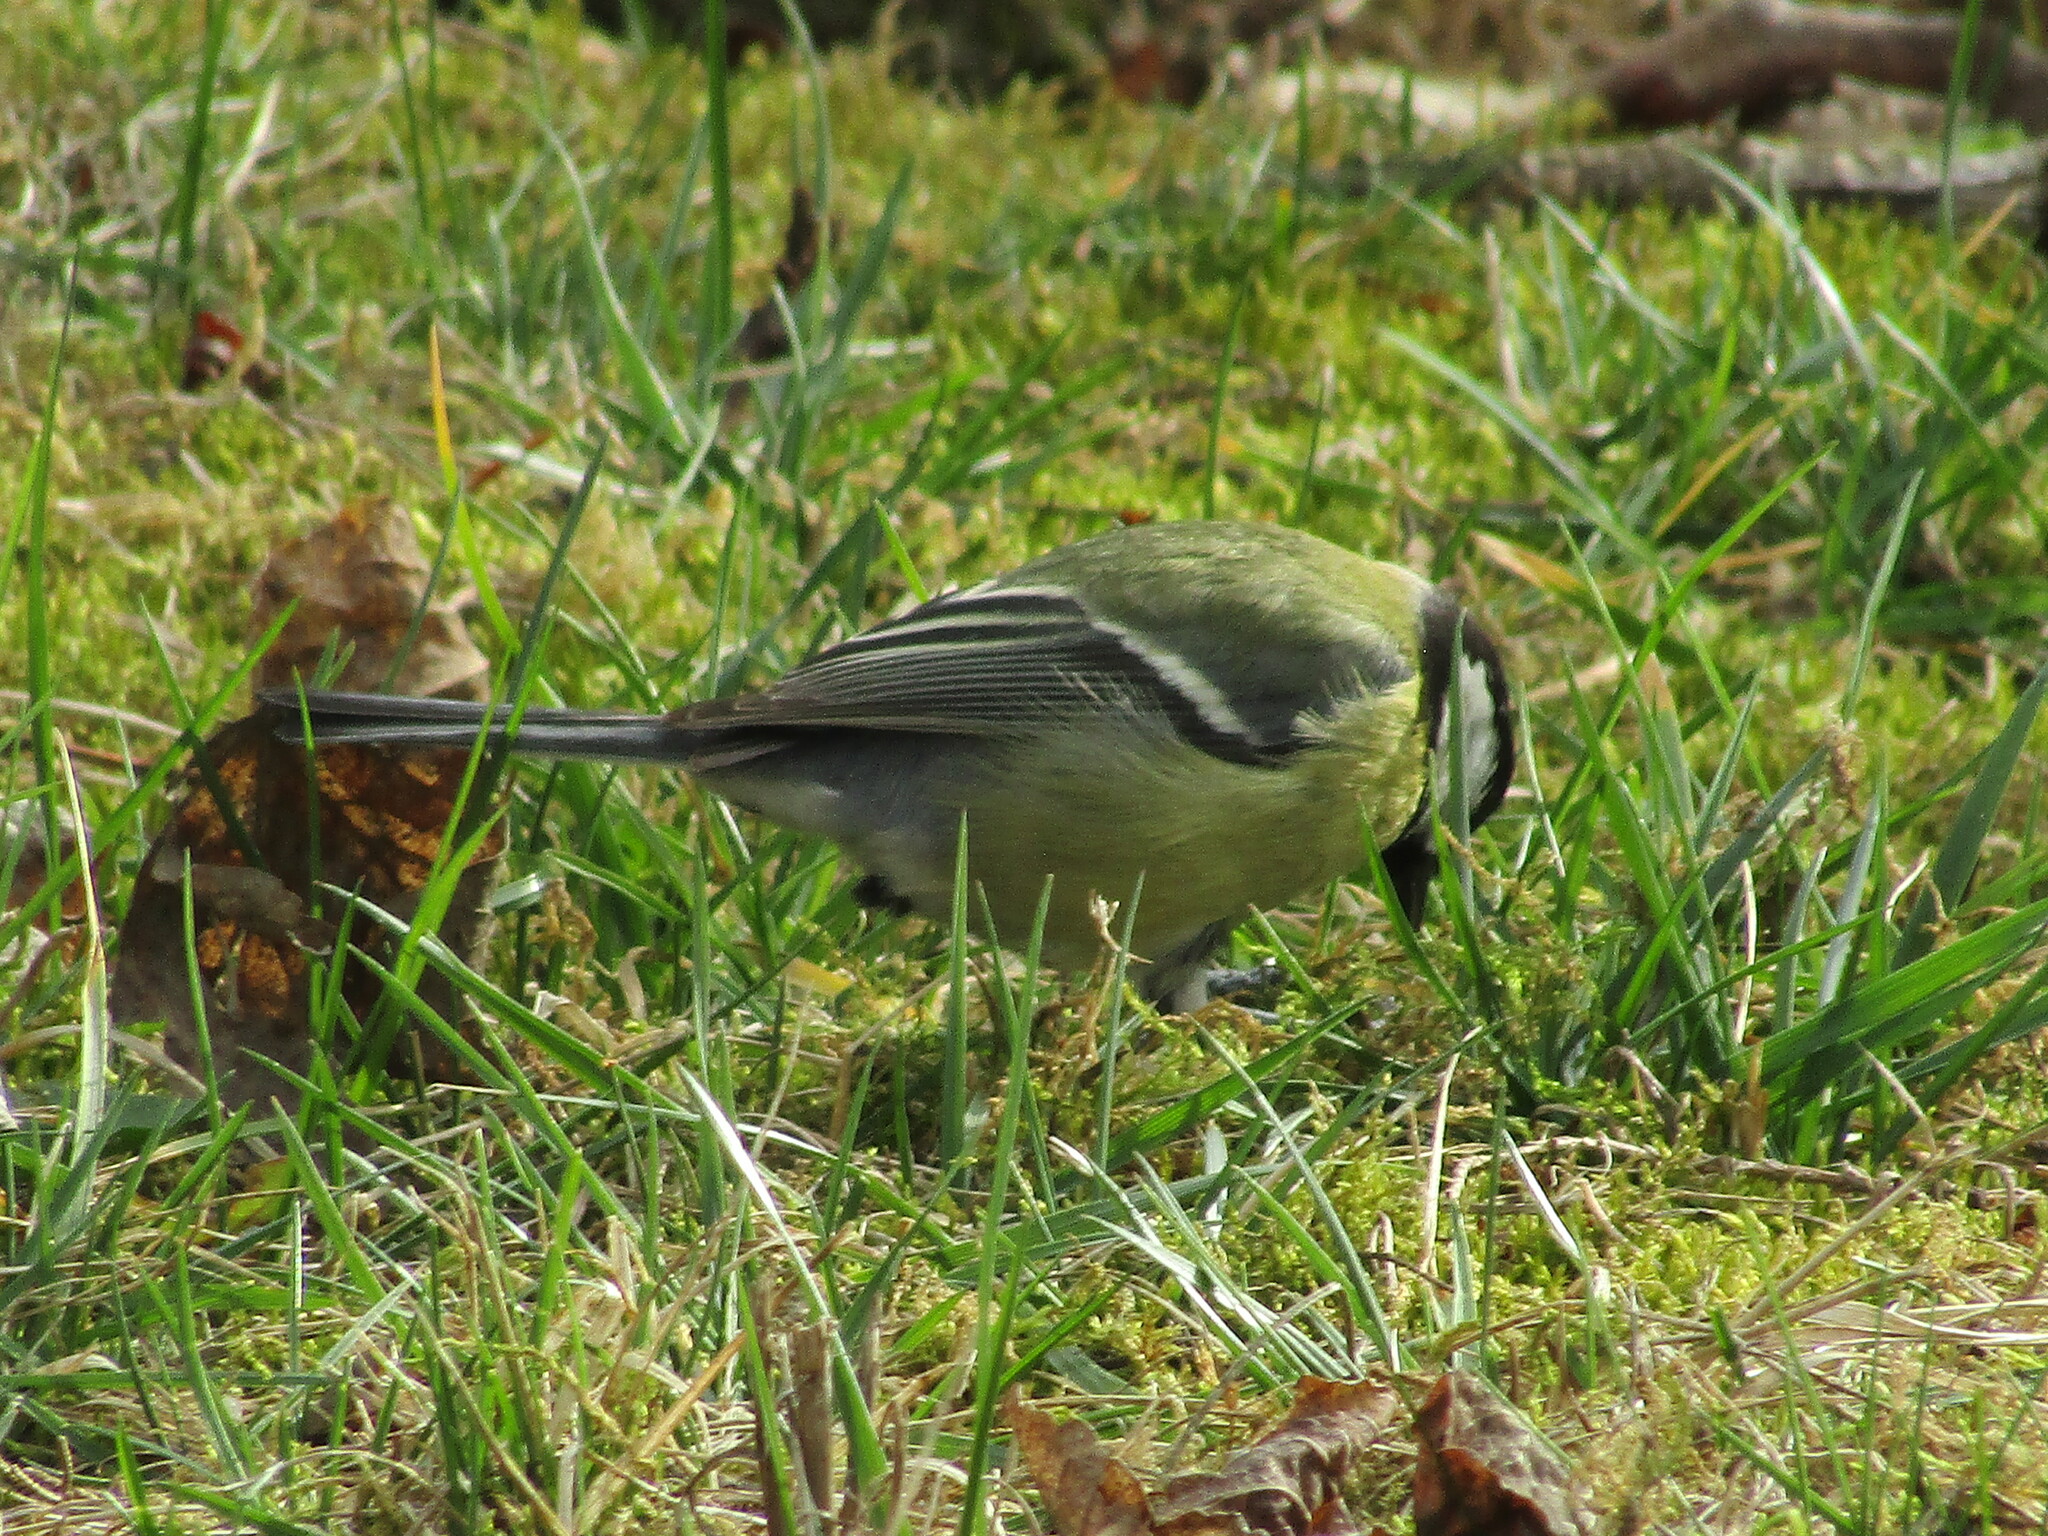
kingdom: Animalia
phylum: Chordata
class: Aves
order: Passeriformes
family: Paridae
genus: Parus
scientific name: Parus major
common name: Great tit
